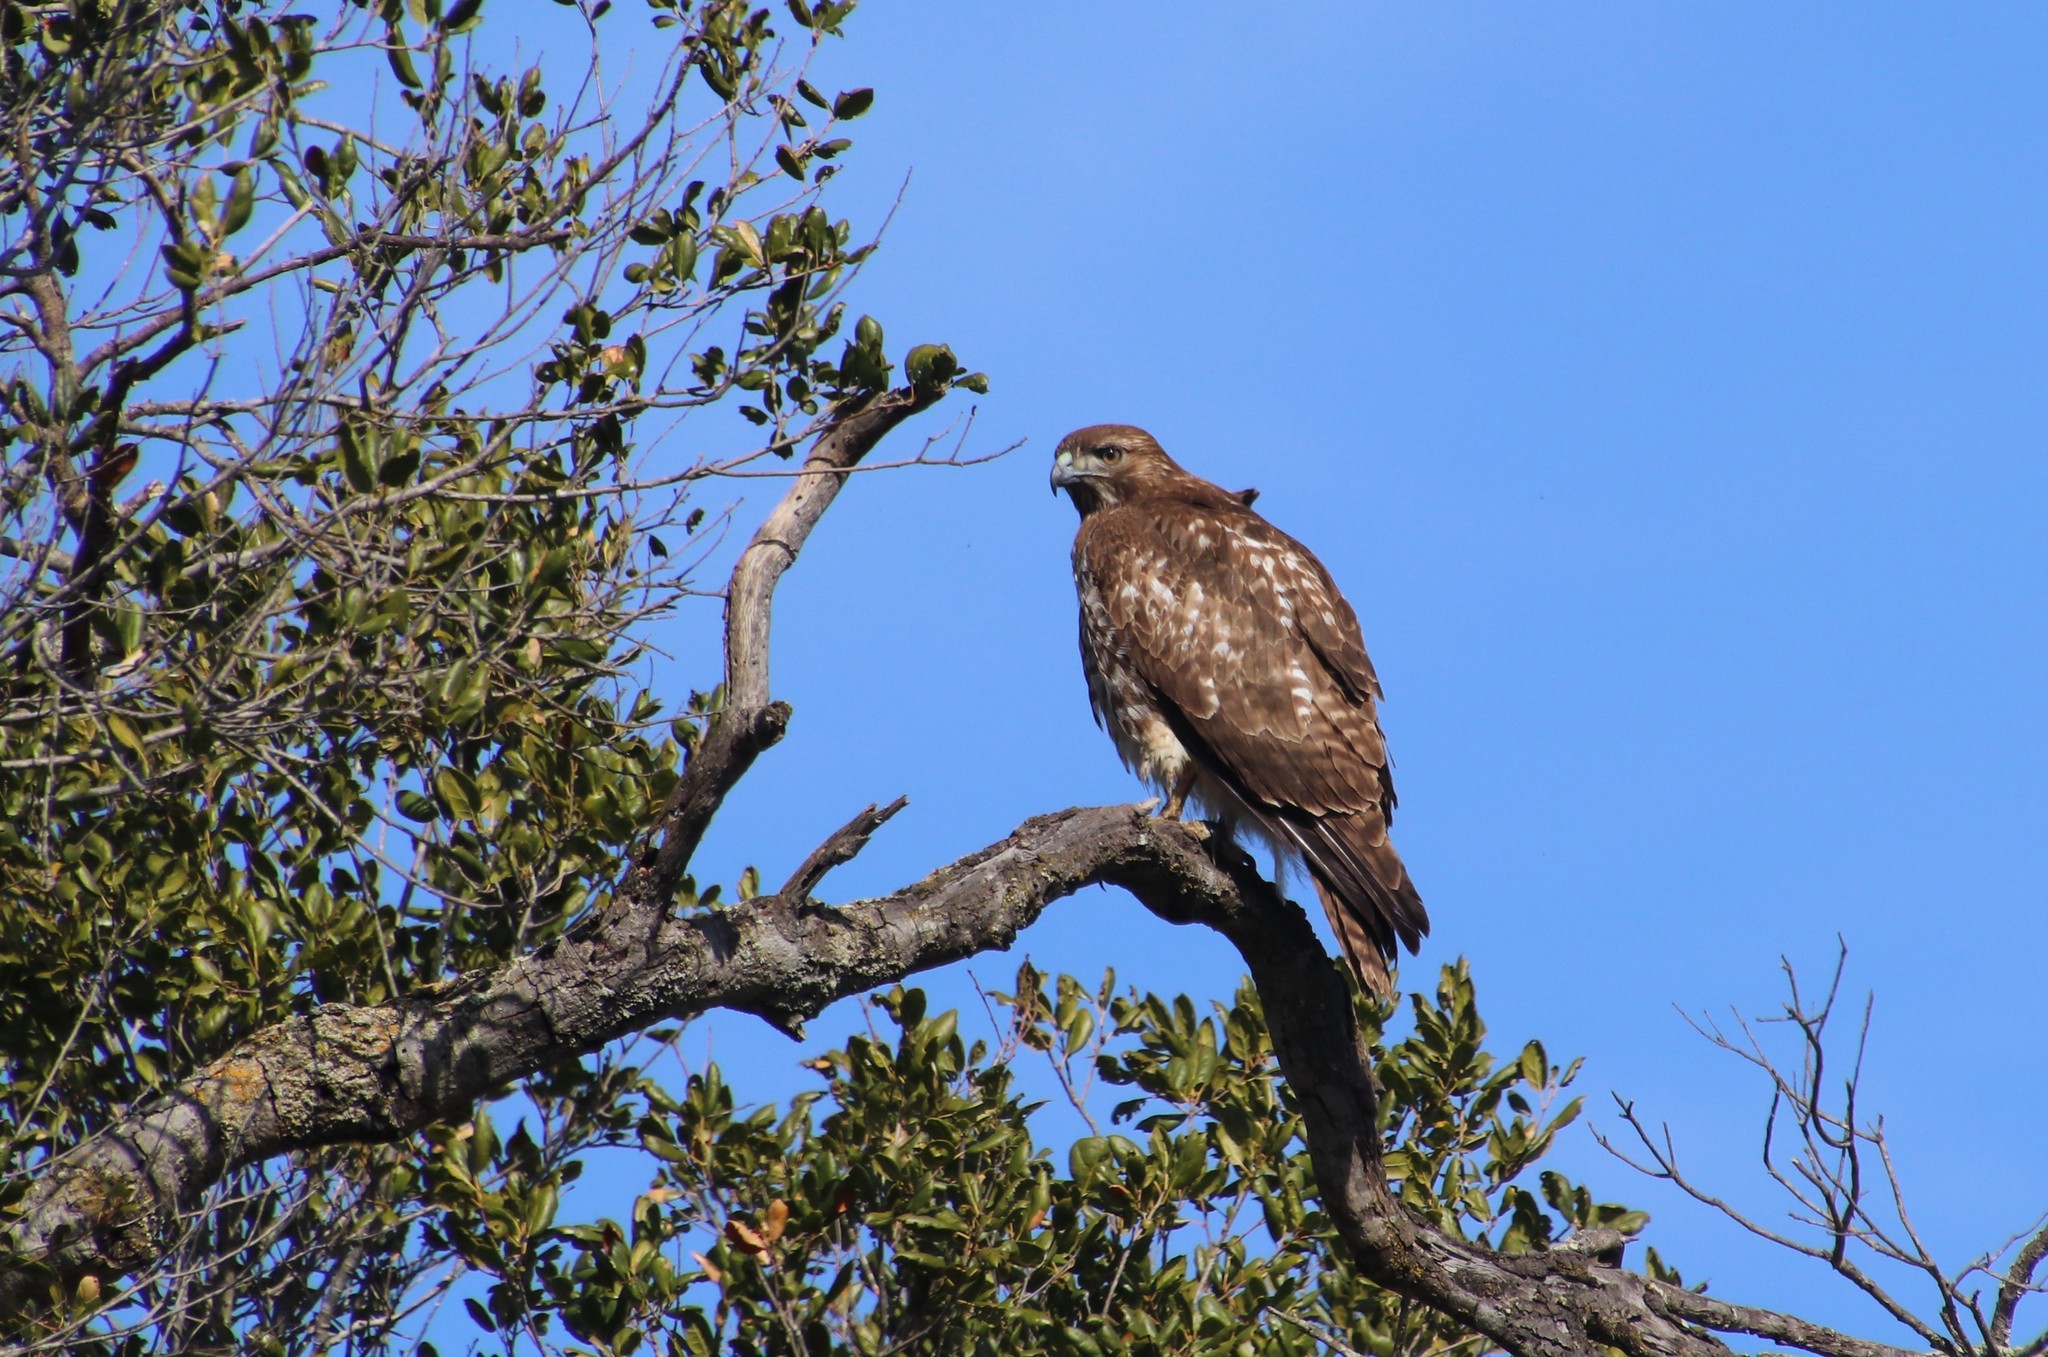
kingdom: Animalia
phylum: Chordata
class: Aves
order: Accipitriformes
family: Accipitridae
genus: Buteo
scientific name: Buteo jamaicensis
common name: Red-tailed hawk
